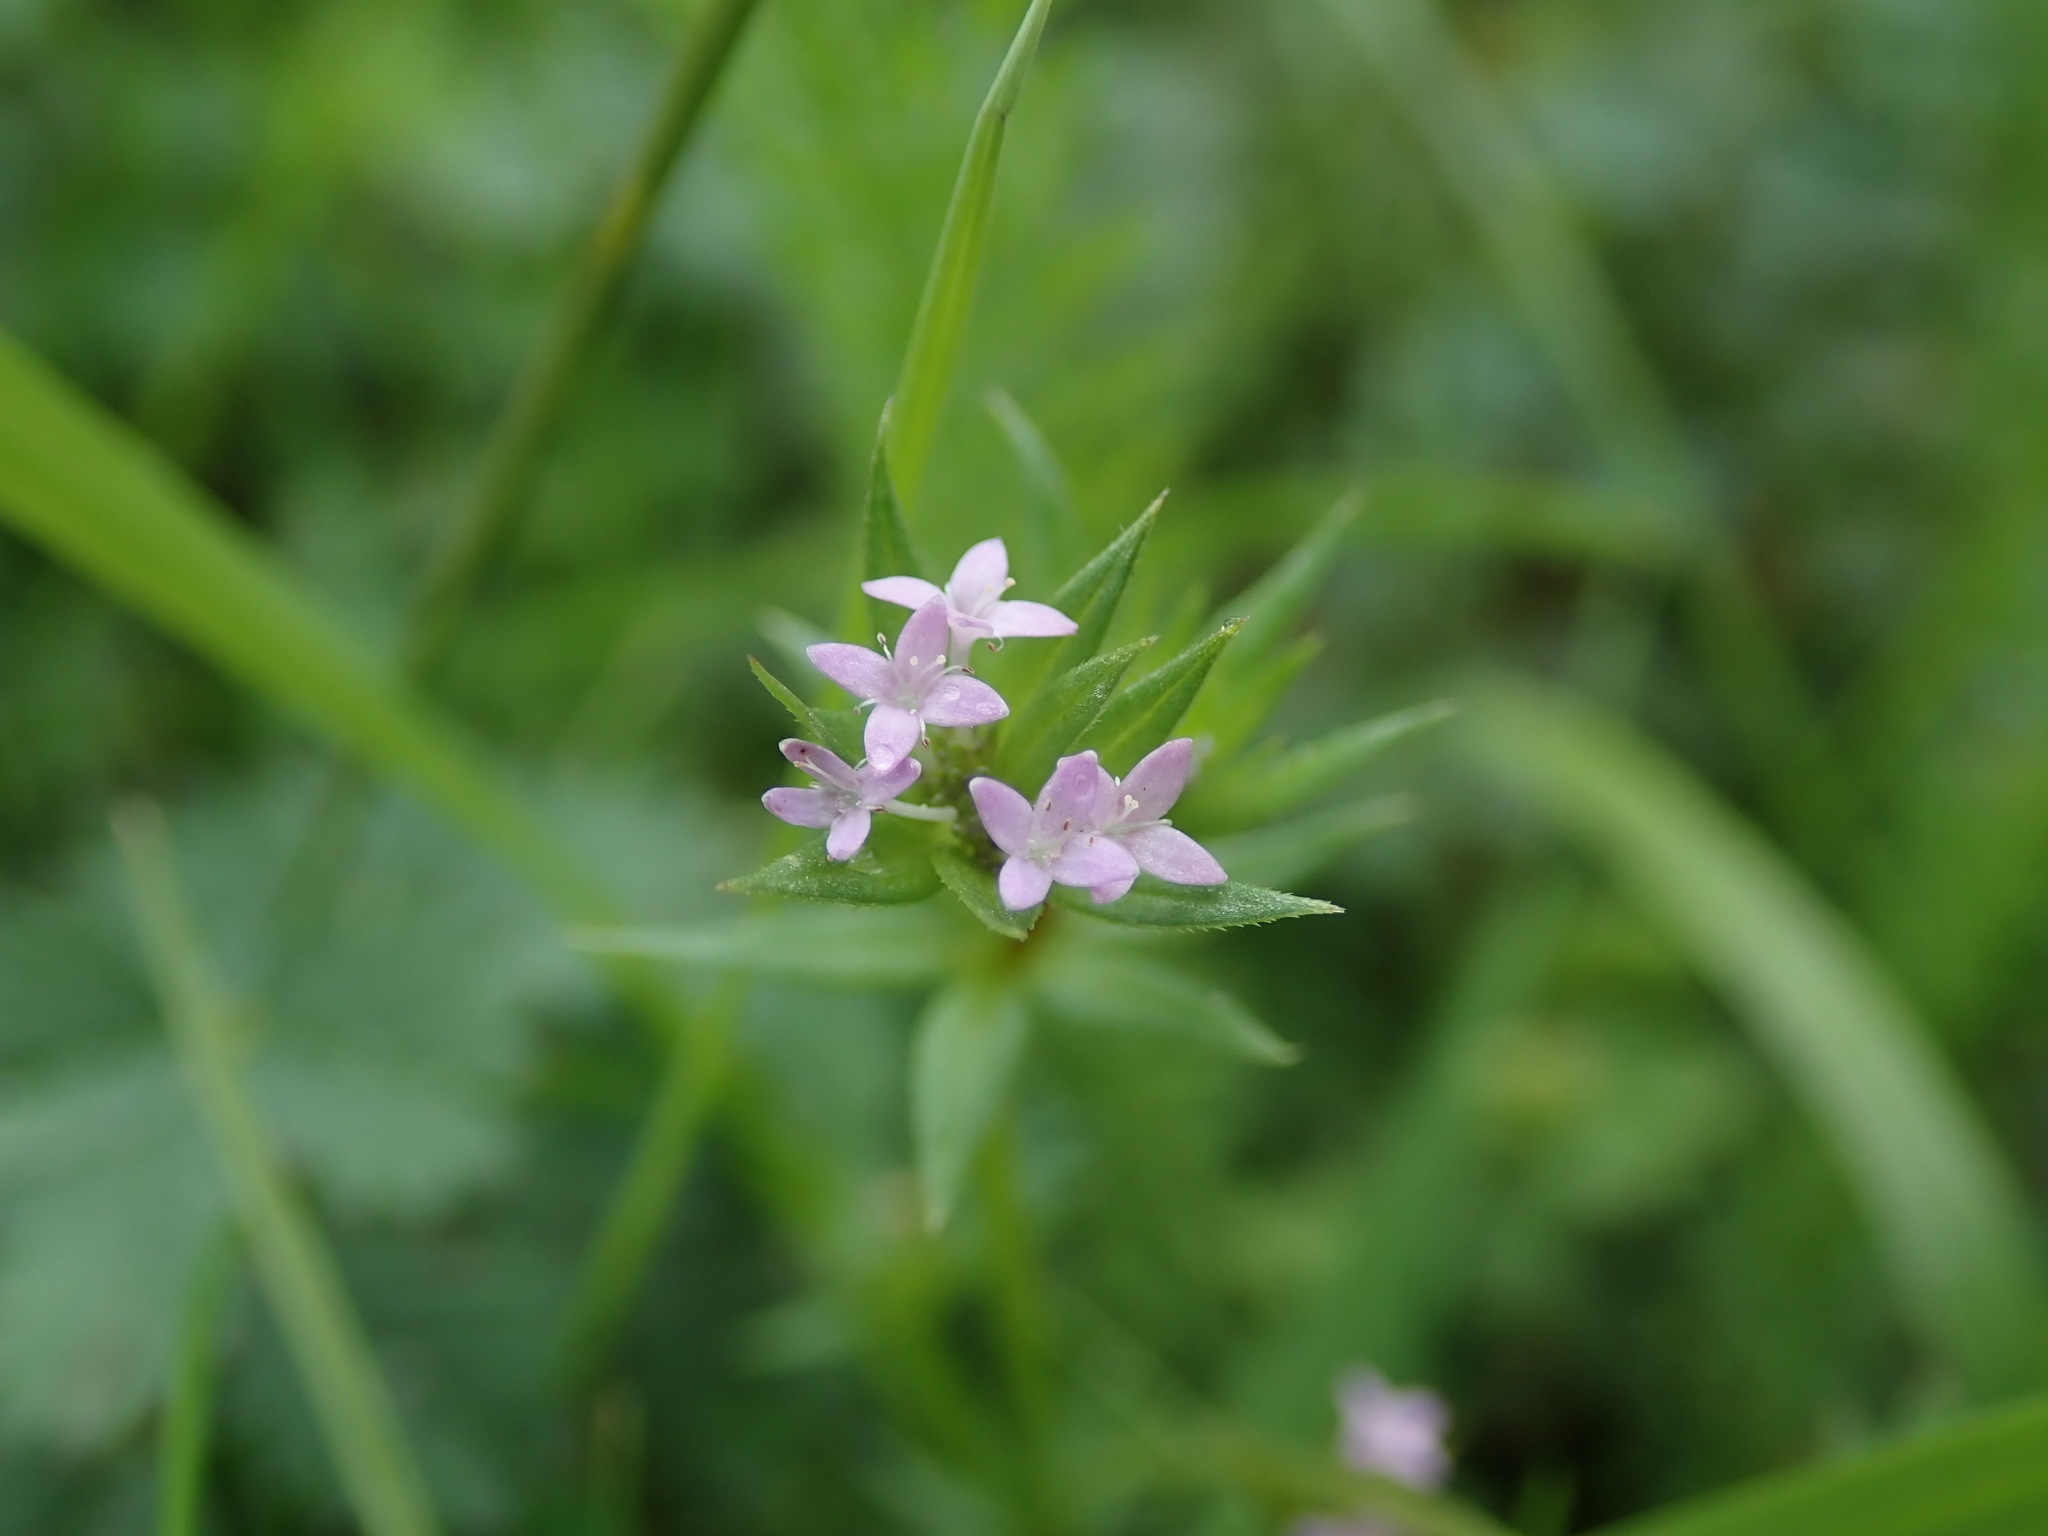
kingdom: Plantae
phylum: Tracheophyta
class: Magnoliopsida
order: Gentianales
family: Rubiaceae
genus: Sherardia
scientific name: Sherardia arvensis
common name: Field madder
